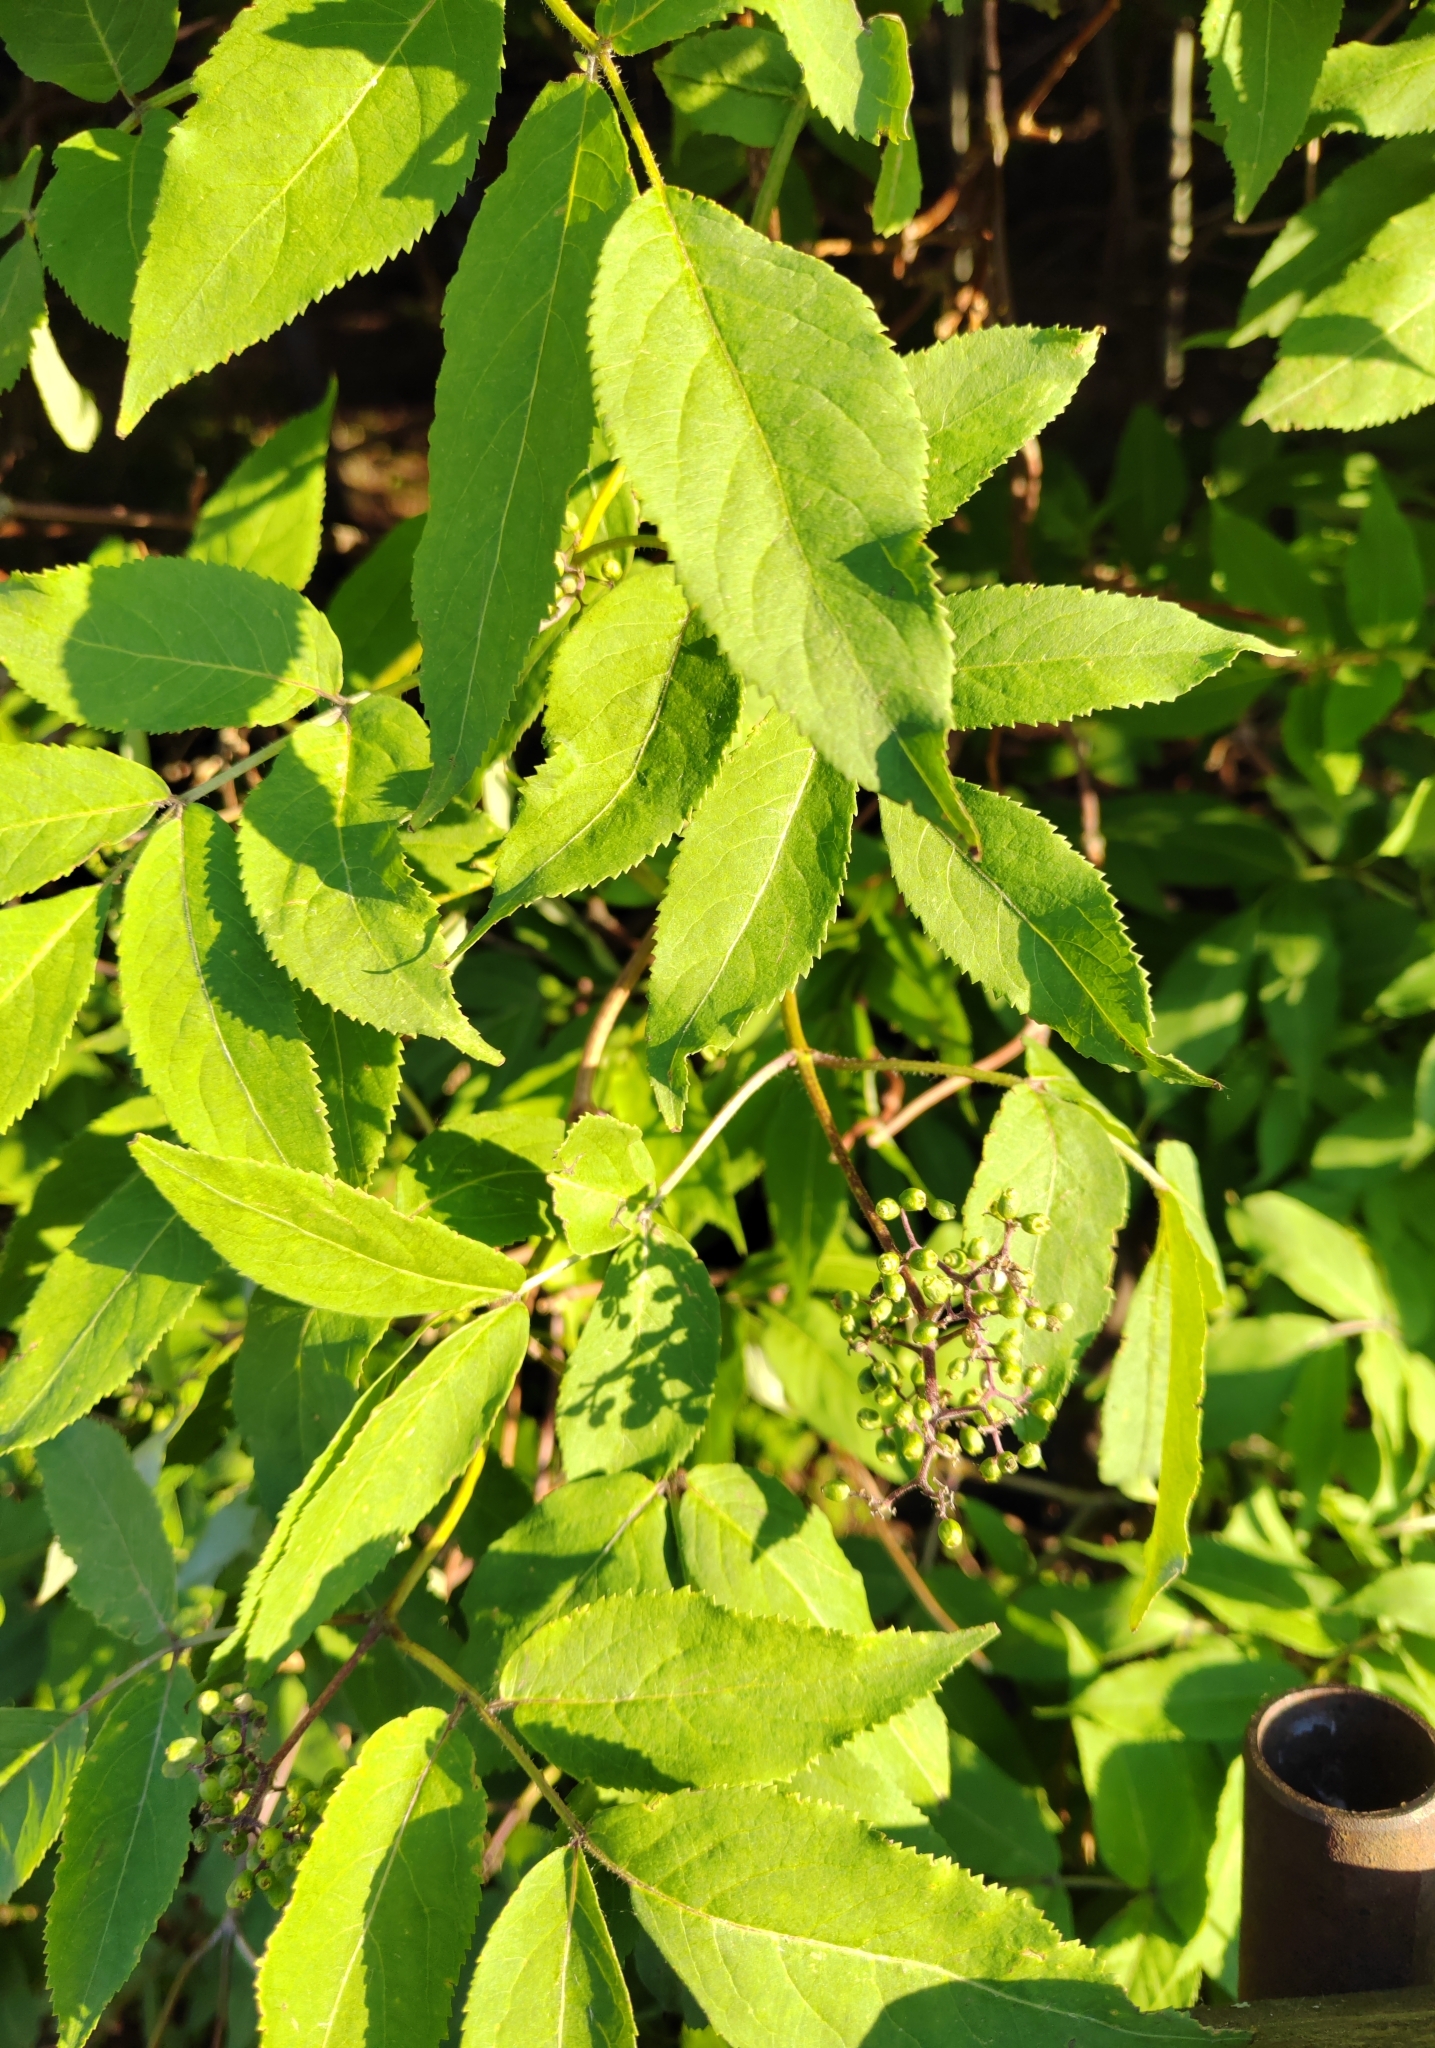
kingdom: Plantae
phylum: Tracheophyta
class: Magnoliopsida
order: Dipsacales
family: Viburnaceae
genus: Sambucus
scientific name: Sambucus sibirica
